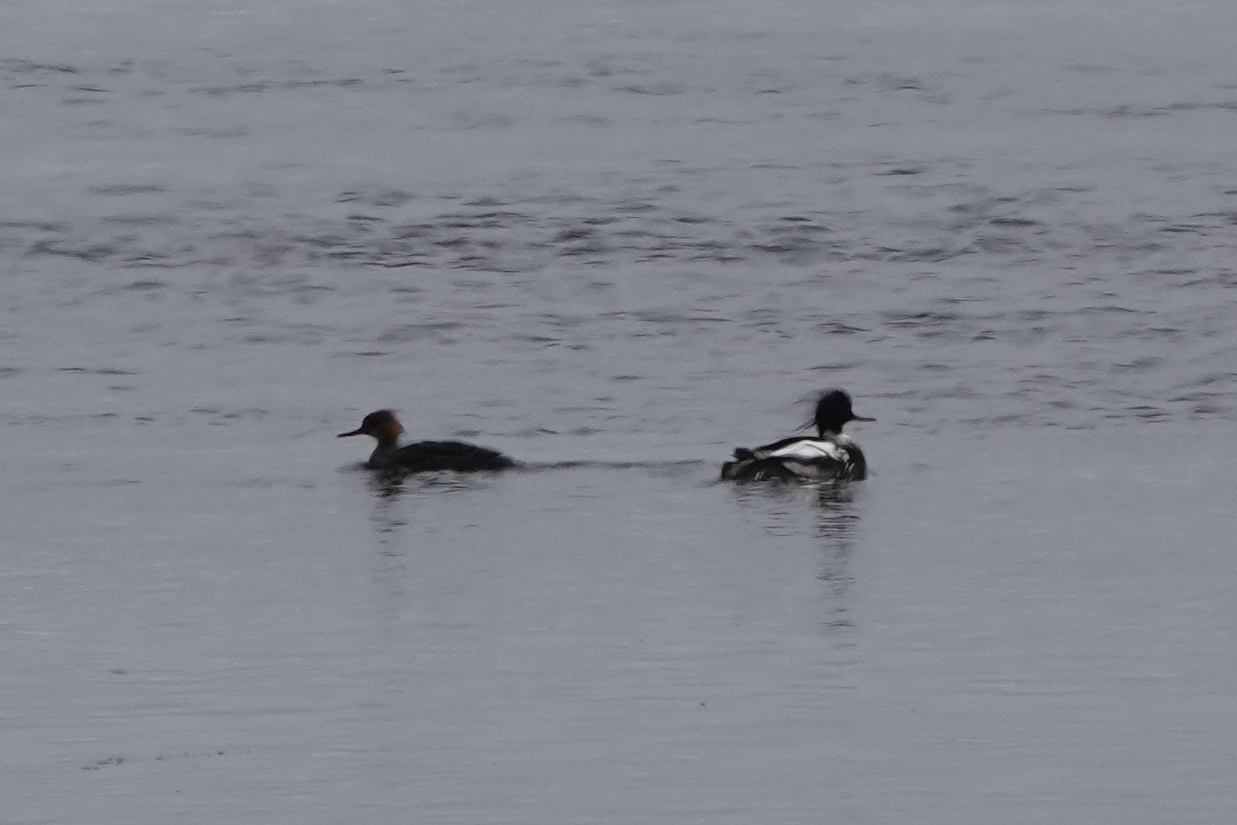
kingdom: Animalia
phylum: Chordata
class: Aves
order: Anseriformes
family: Anatidae
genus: Mergus
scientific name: Mergus serrator
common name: Red-breasted merganser
